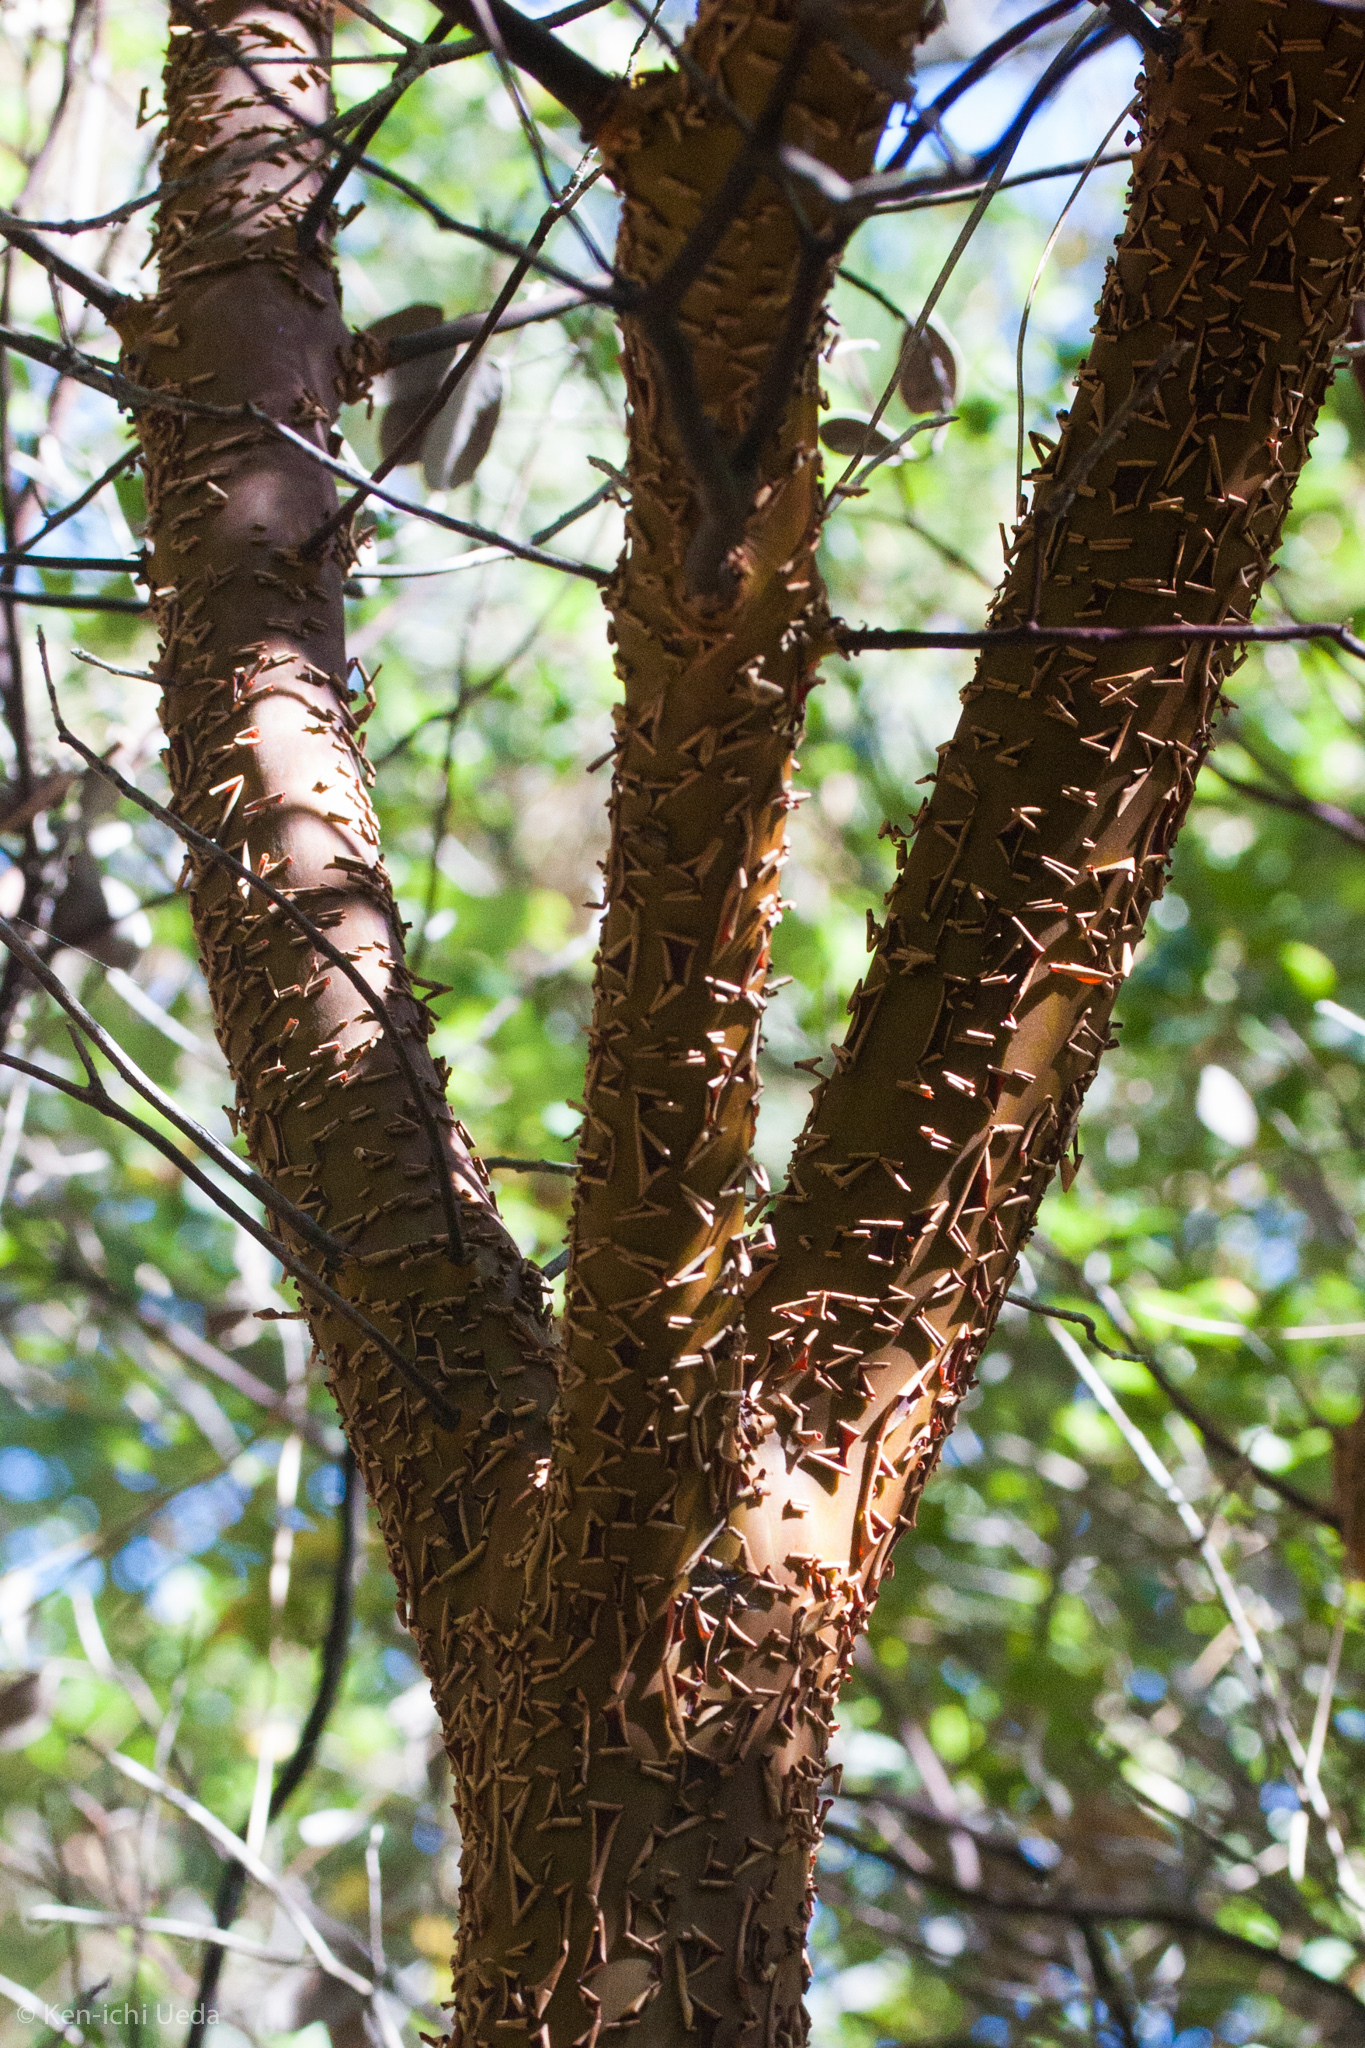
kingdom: Plantae
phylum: Tracheophyta
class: Magnoliopsida
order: Ericales
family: Ericaceae
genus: Arctostaphylos
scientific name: Arctostaphylos hooveri
